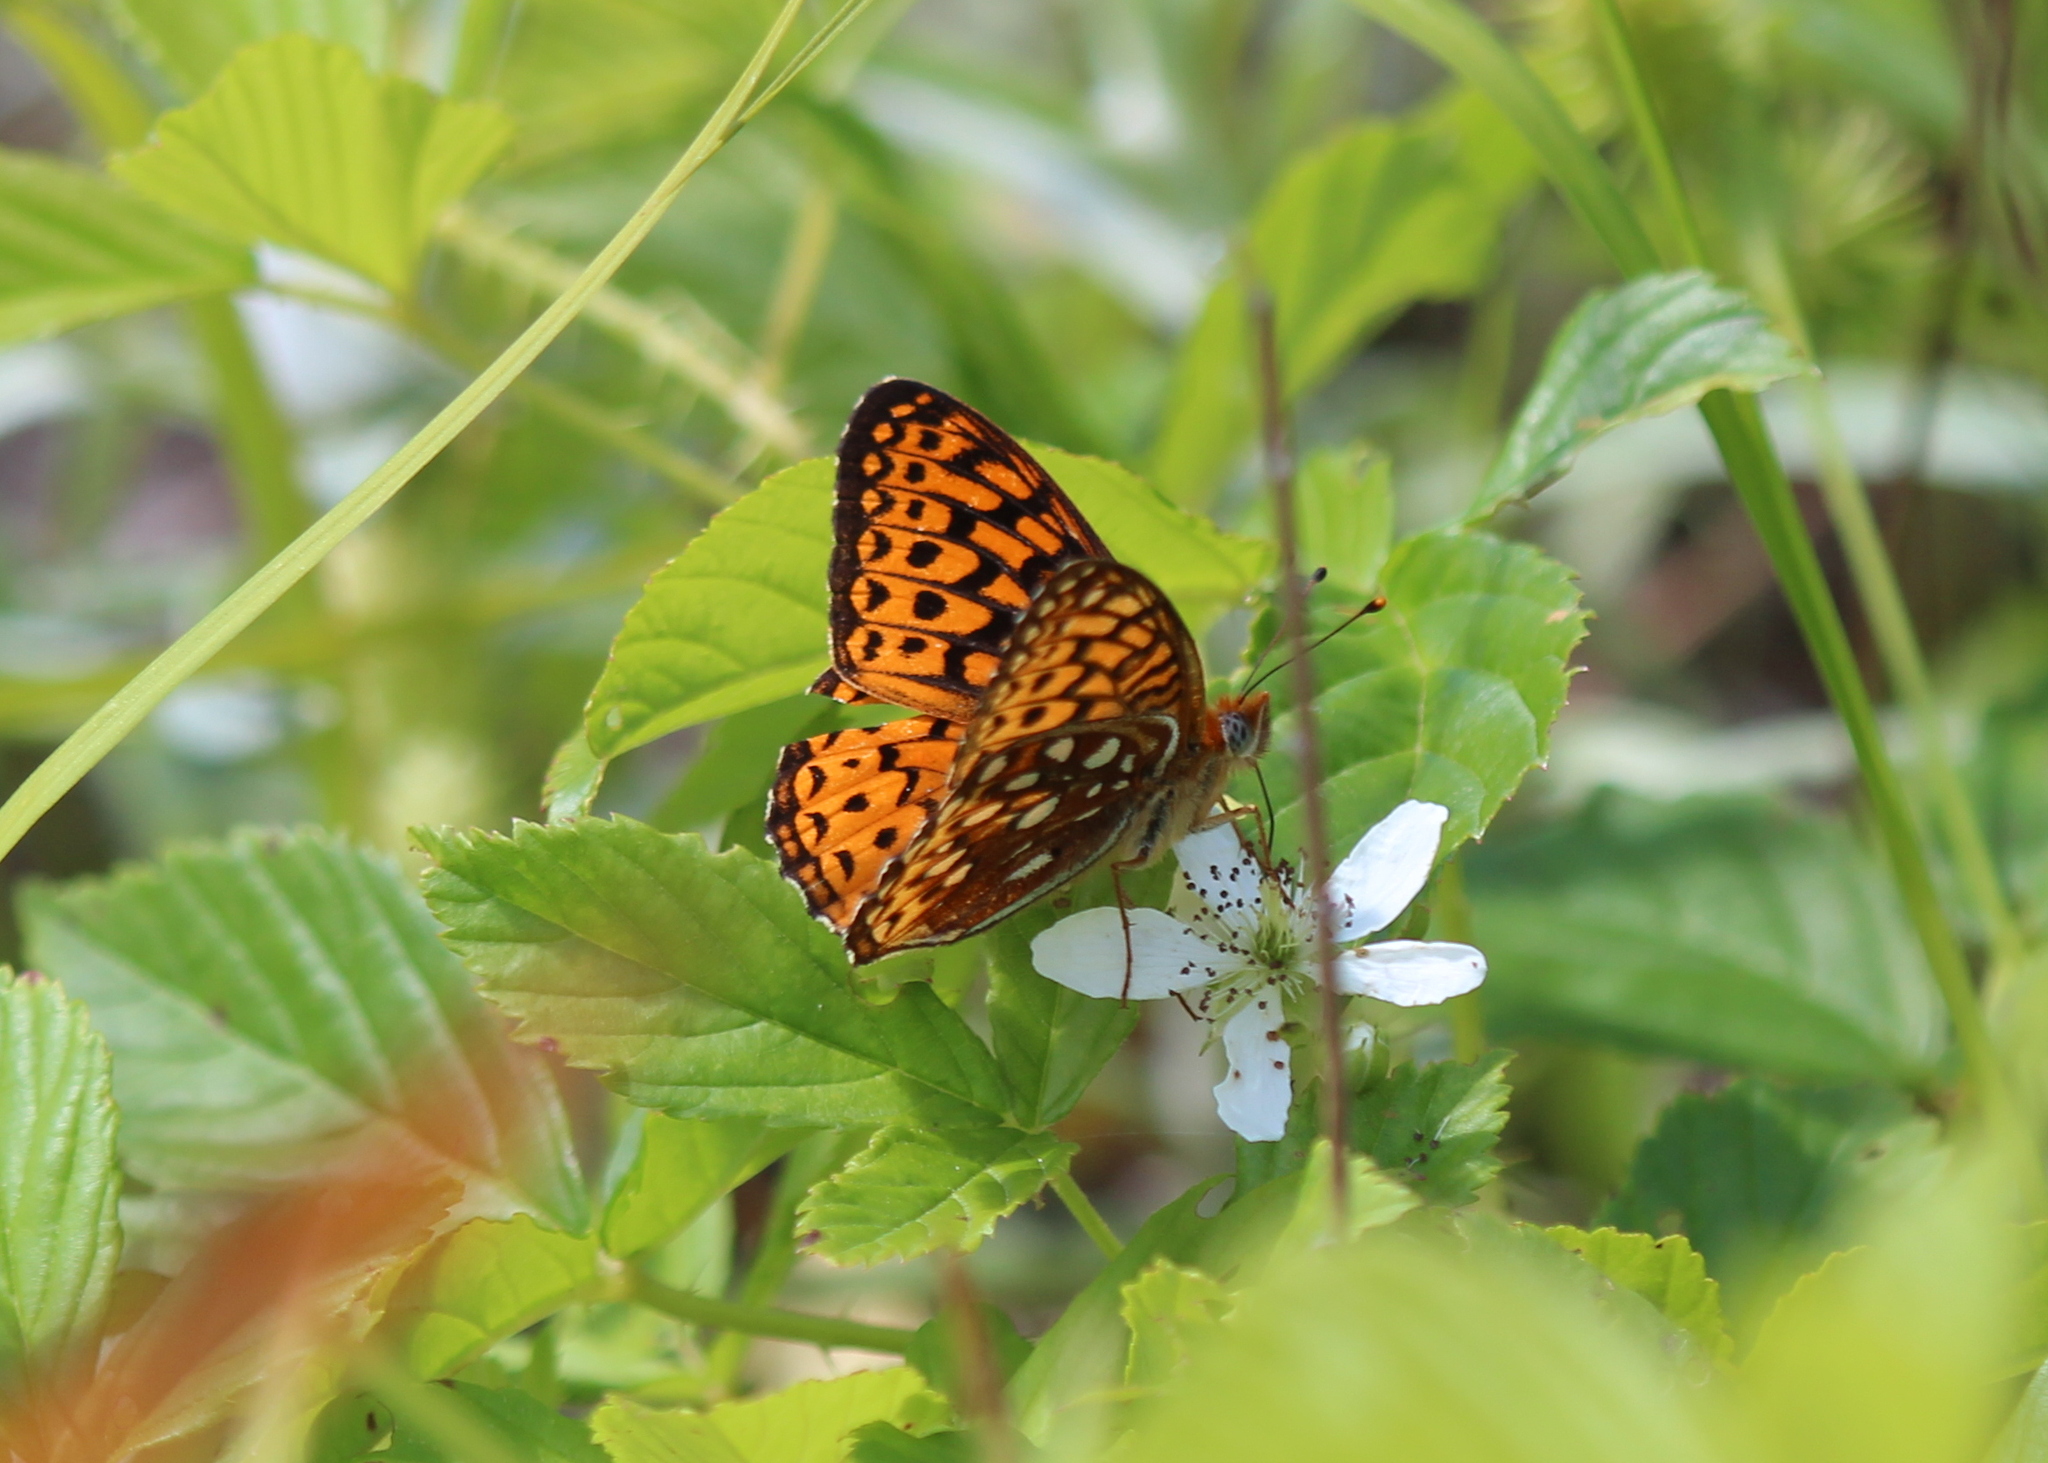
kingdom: Animalia
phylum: Arthropoda
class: Insecta
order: Lepidoptera
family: Nymphalidae
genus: Speyeria
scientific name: Speyeria atlantis
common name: Atlantis fritillary
